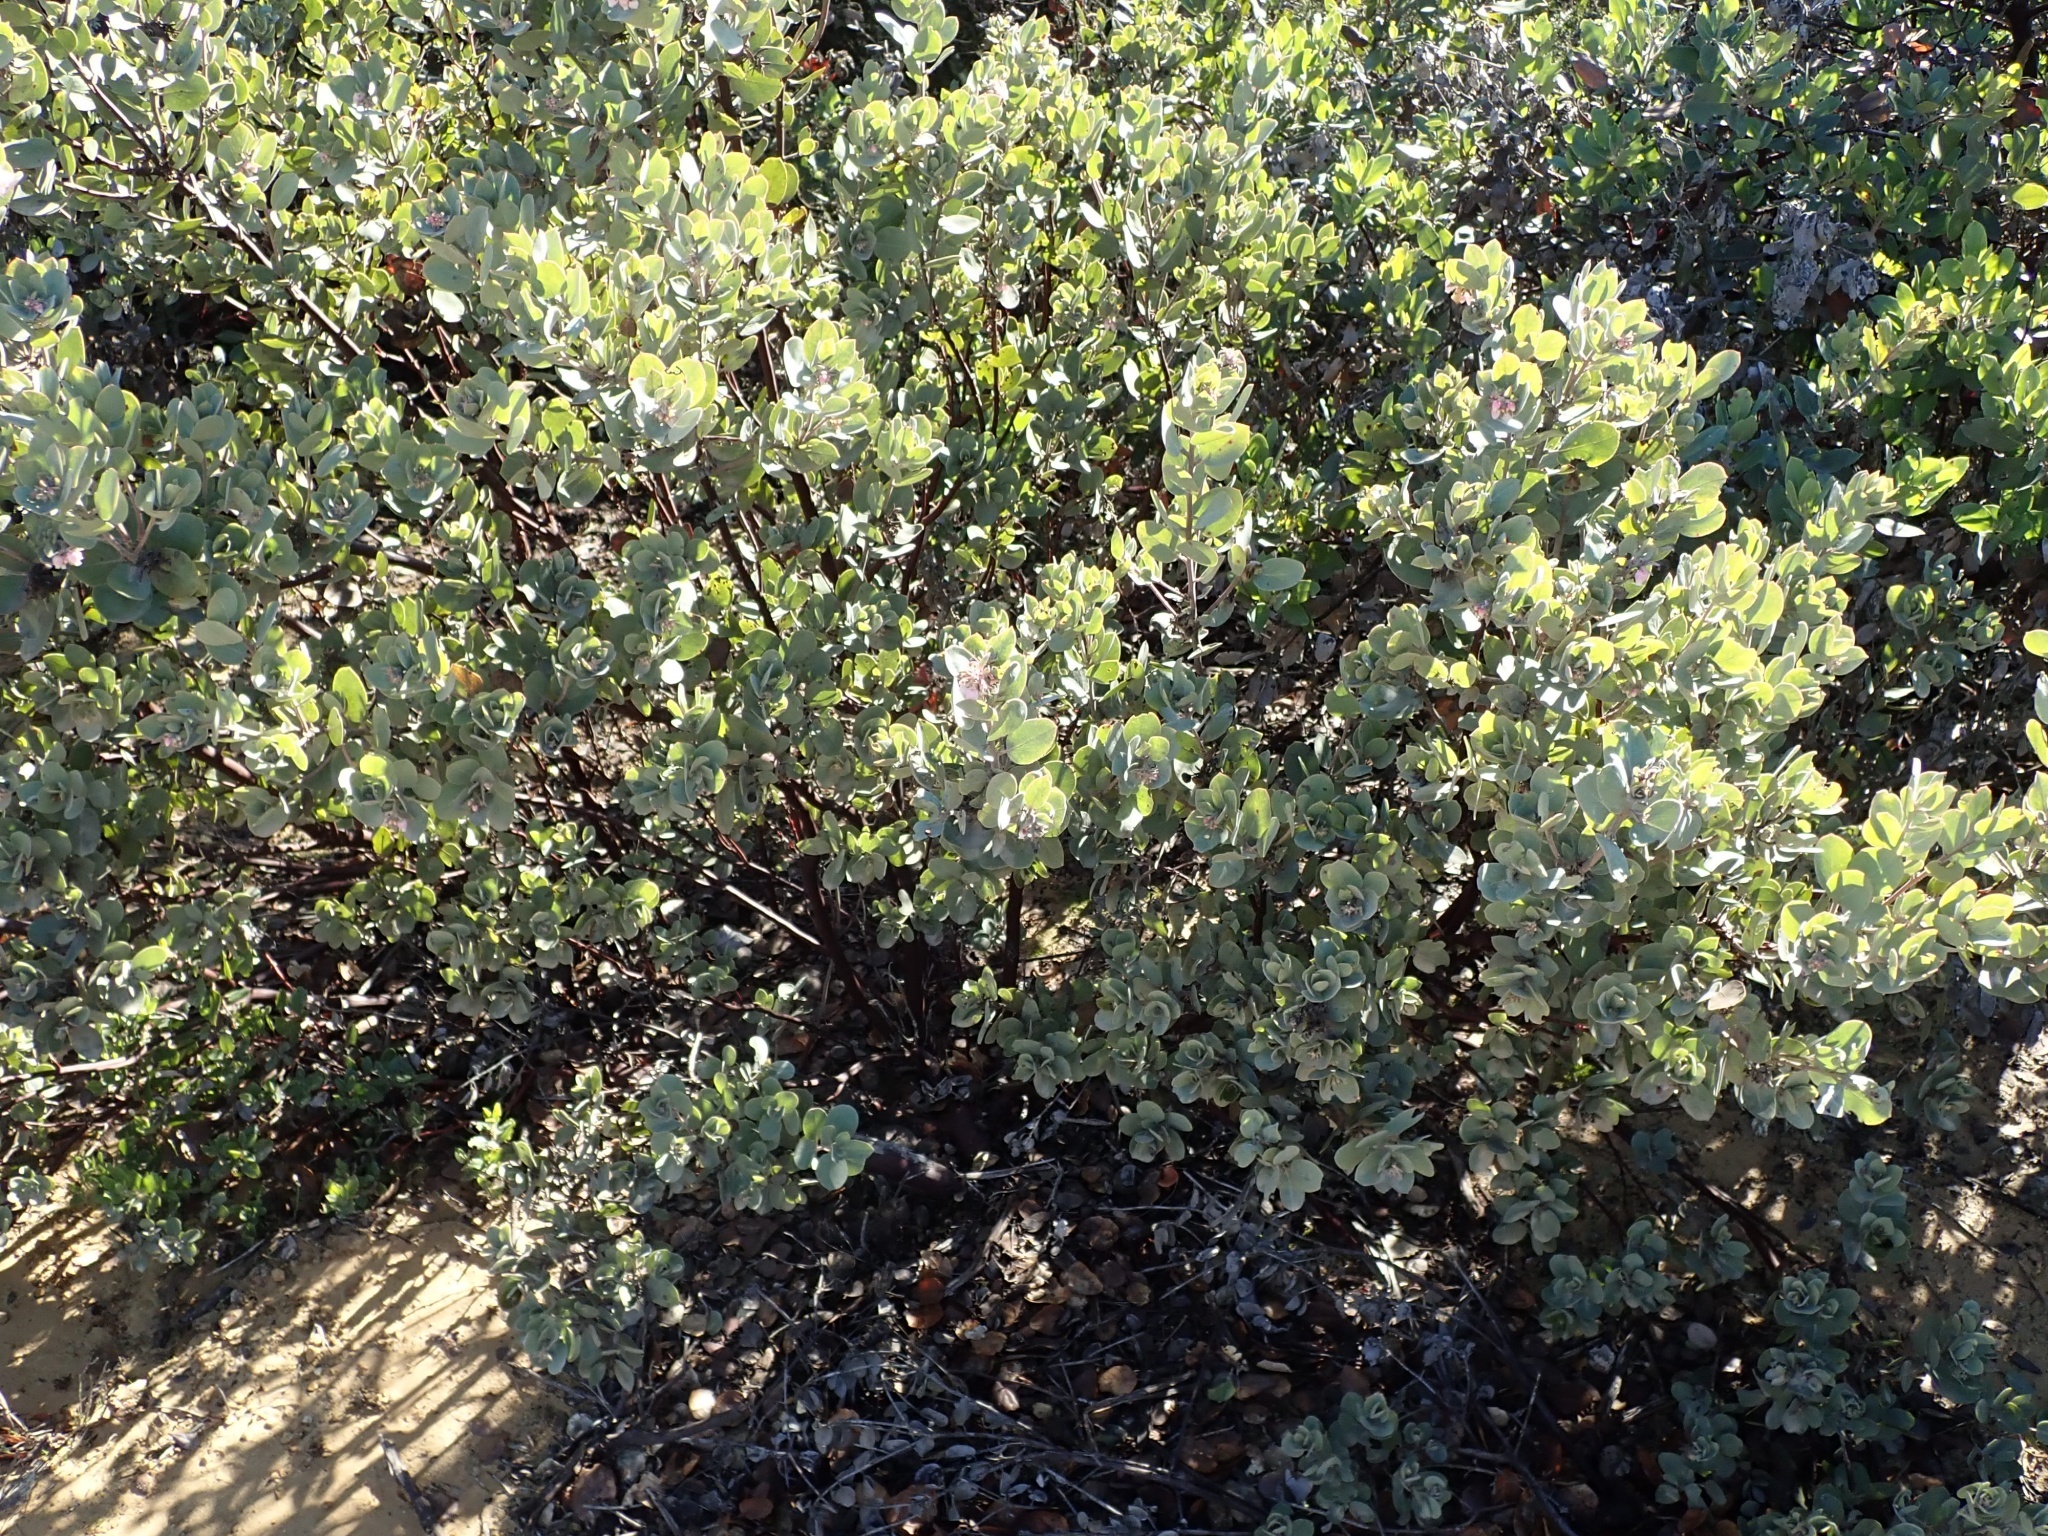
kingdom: Plantae
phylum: Tracheophyta
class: Magnoliopsida
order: Ericales
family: Ericaceae
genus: Arctostaphylos
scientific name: Arctostaphylos canescens
